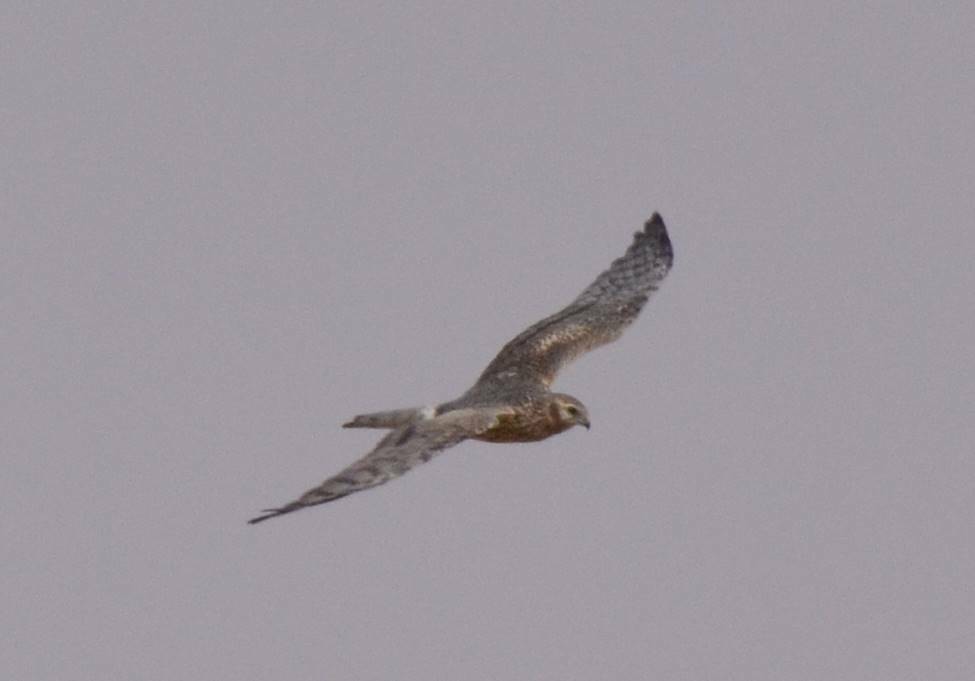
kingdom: Animalia
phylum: Chordata
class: Aves
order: Accipitriformes
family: Accipitridae
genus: Circus
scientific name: Circus pygargus
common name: Montagu's harrier
